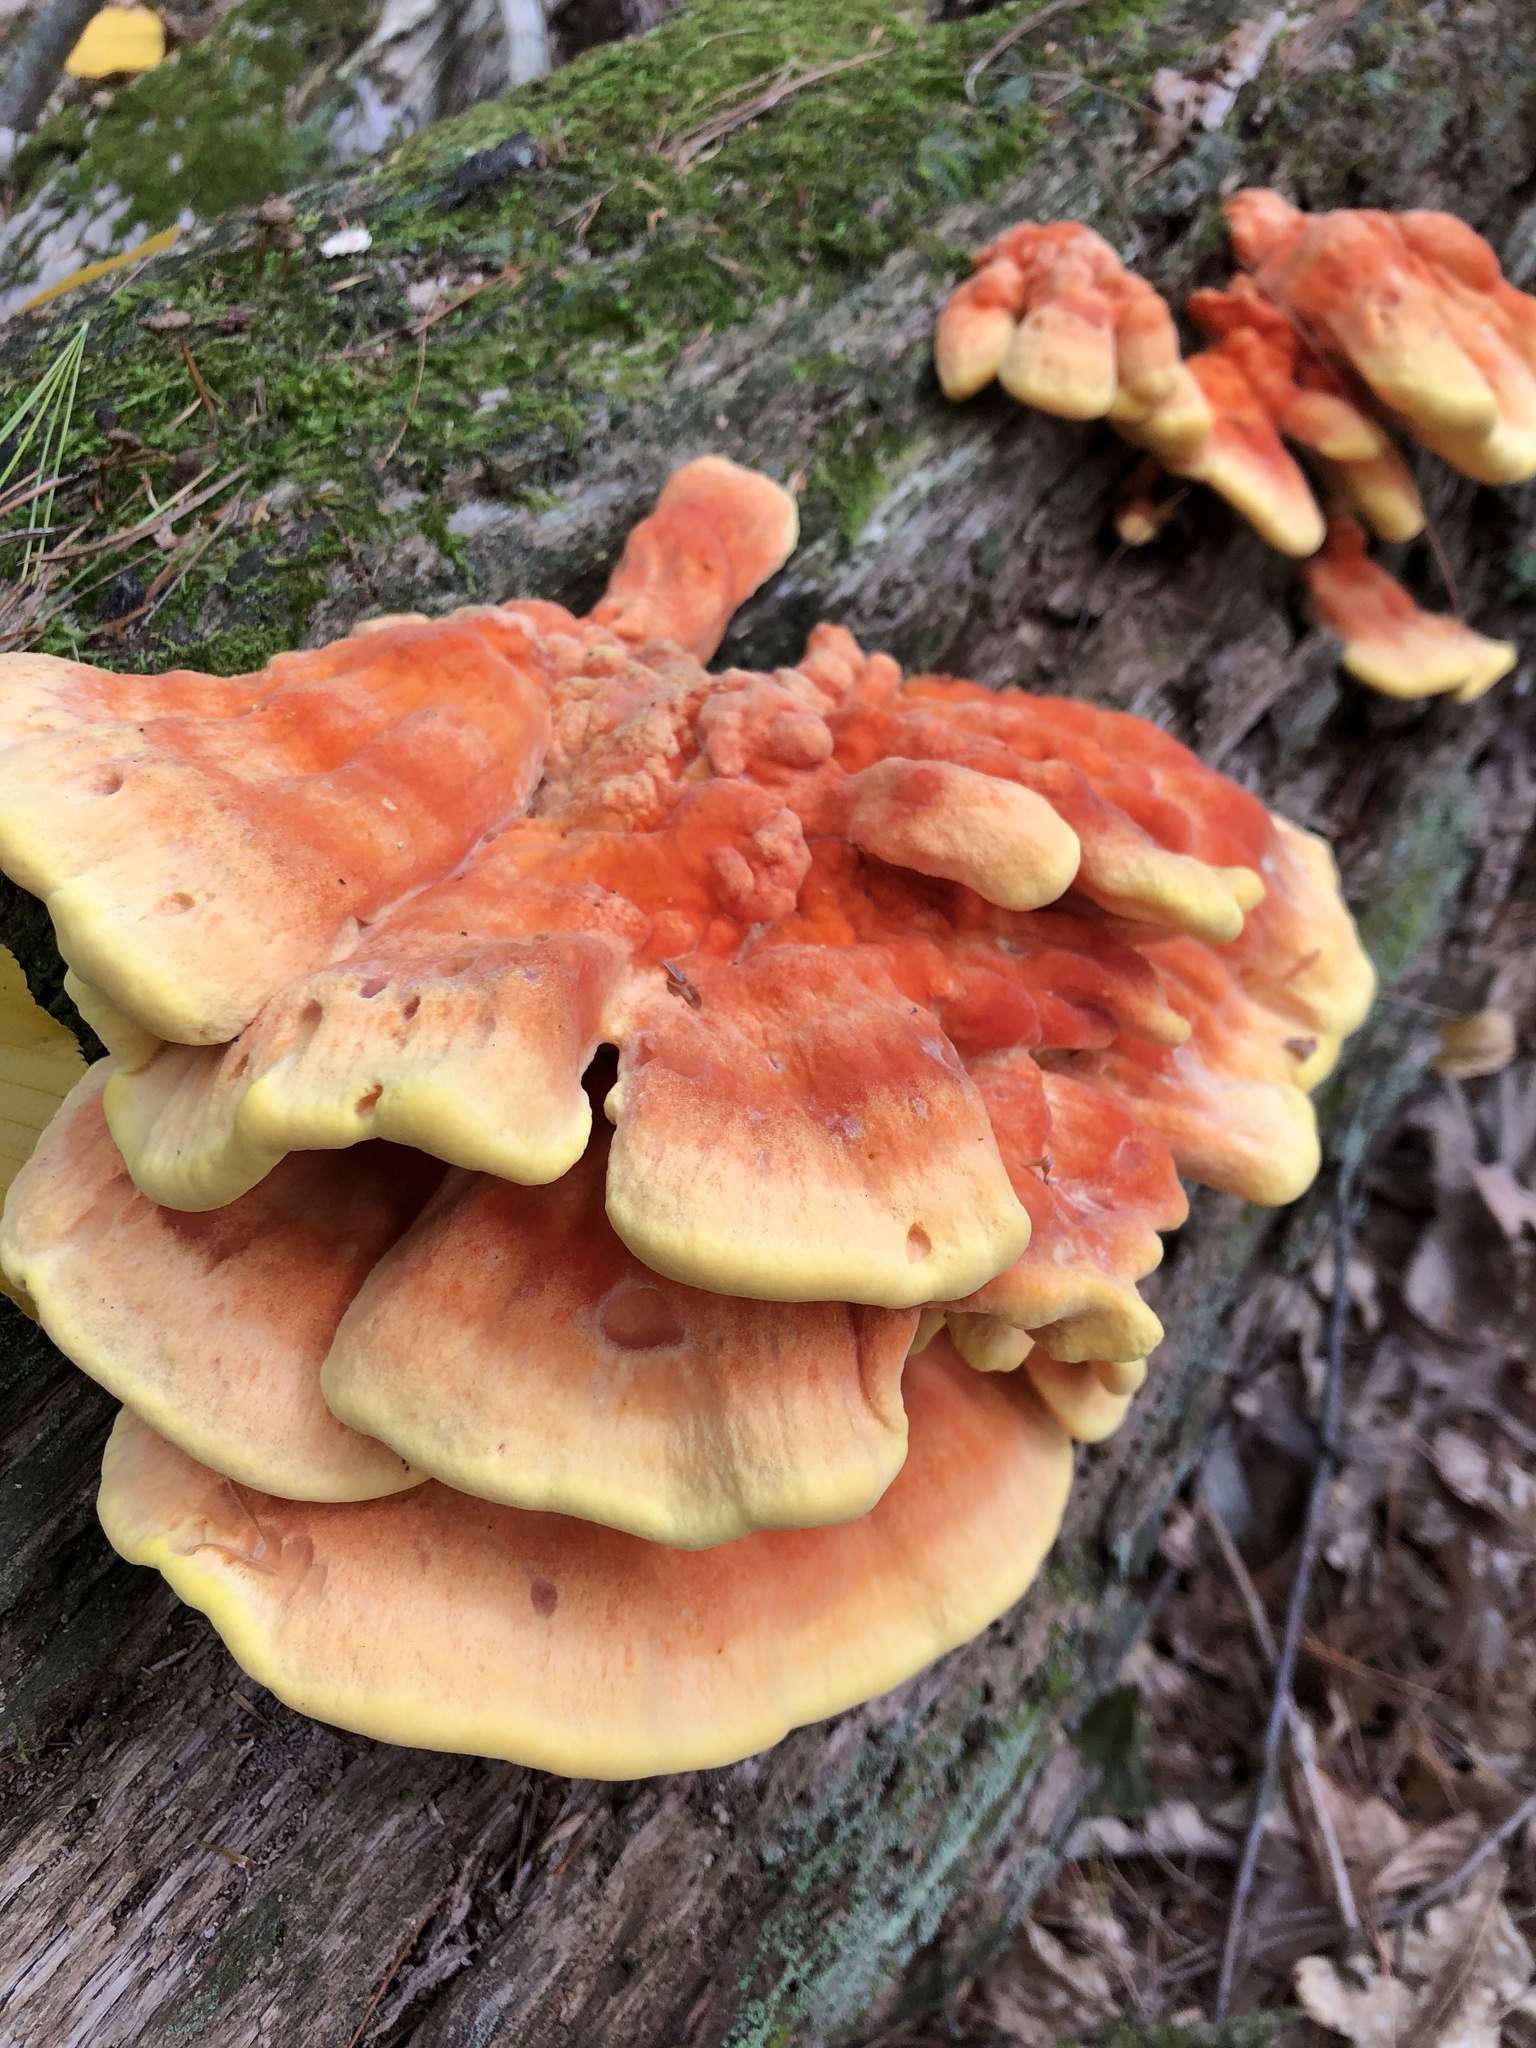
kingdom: Fungi
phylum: Basidiomycota
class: Agaricomycetes
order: Polyporales
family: Laetiporaceae
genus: Laetiporus
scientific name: Laetiporus sulphureus
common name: Chicken of the woods
